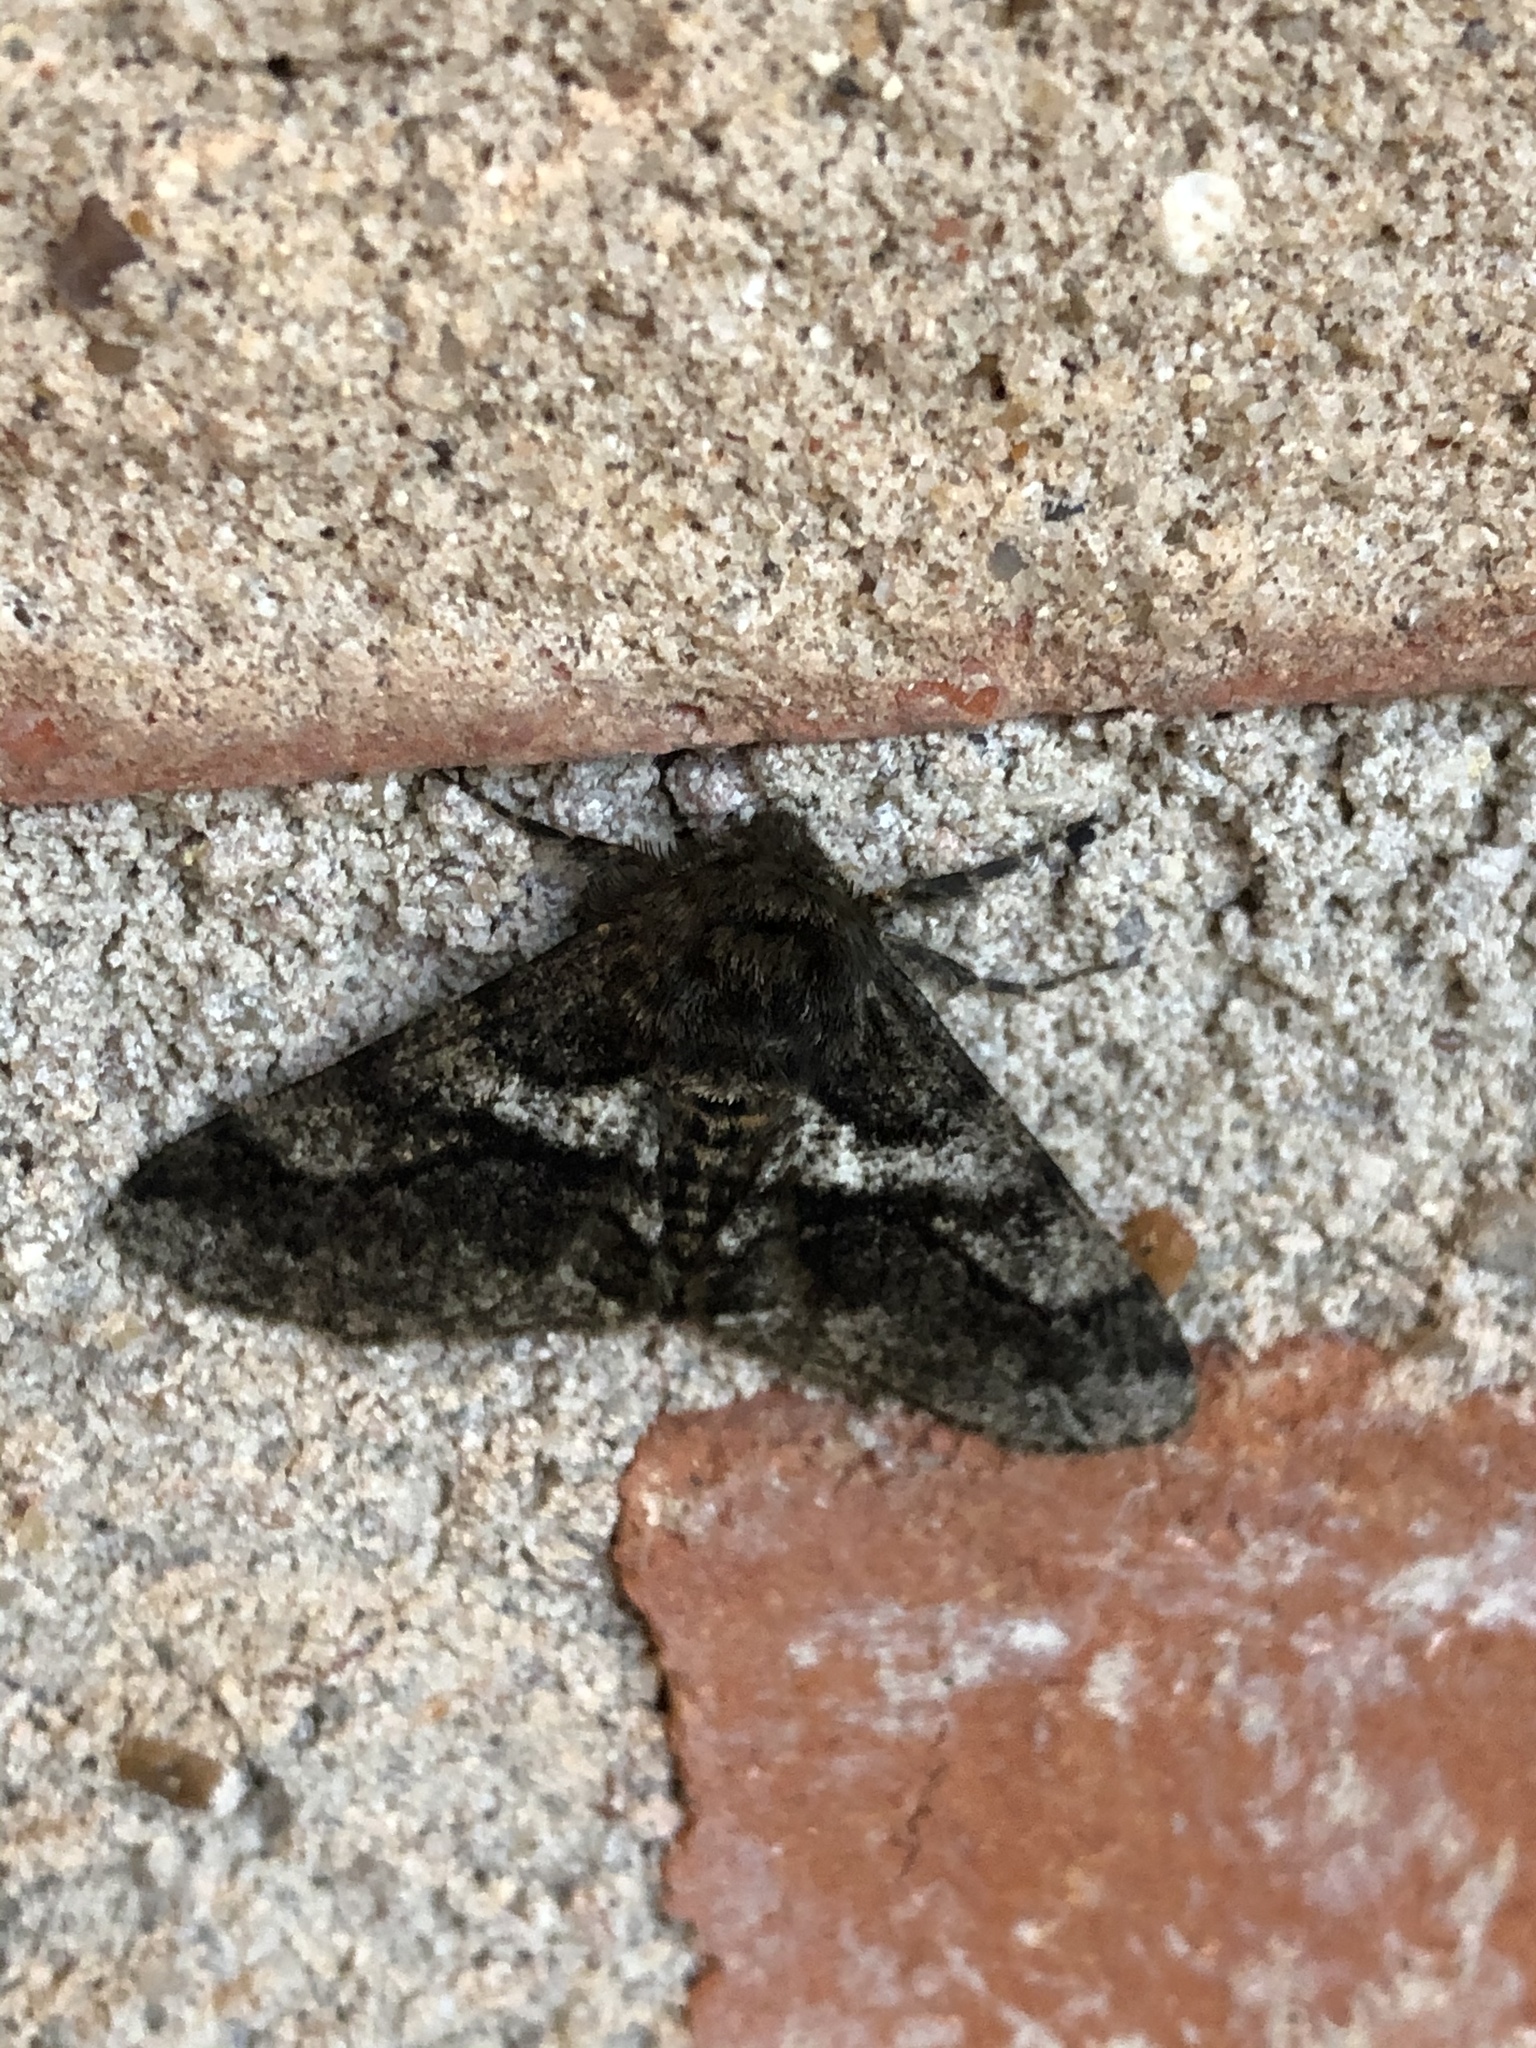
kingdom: Animalia
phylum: Arthropoda
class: Insecta
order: Lepidoptera
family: Geometridae
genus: Lycia
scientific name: Lycia ypsilon
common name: Wooly gray
